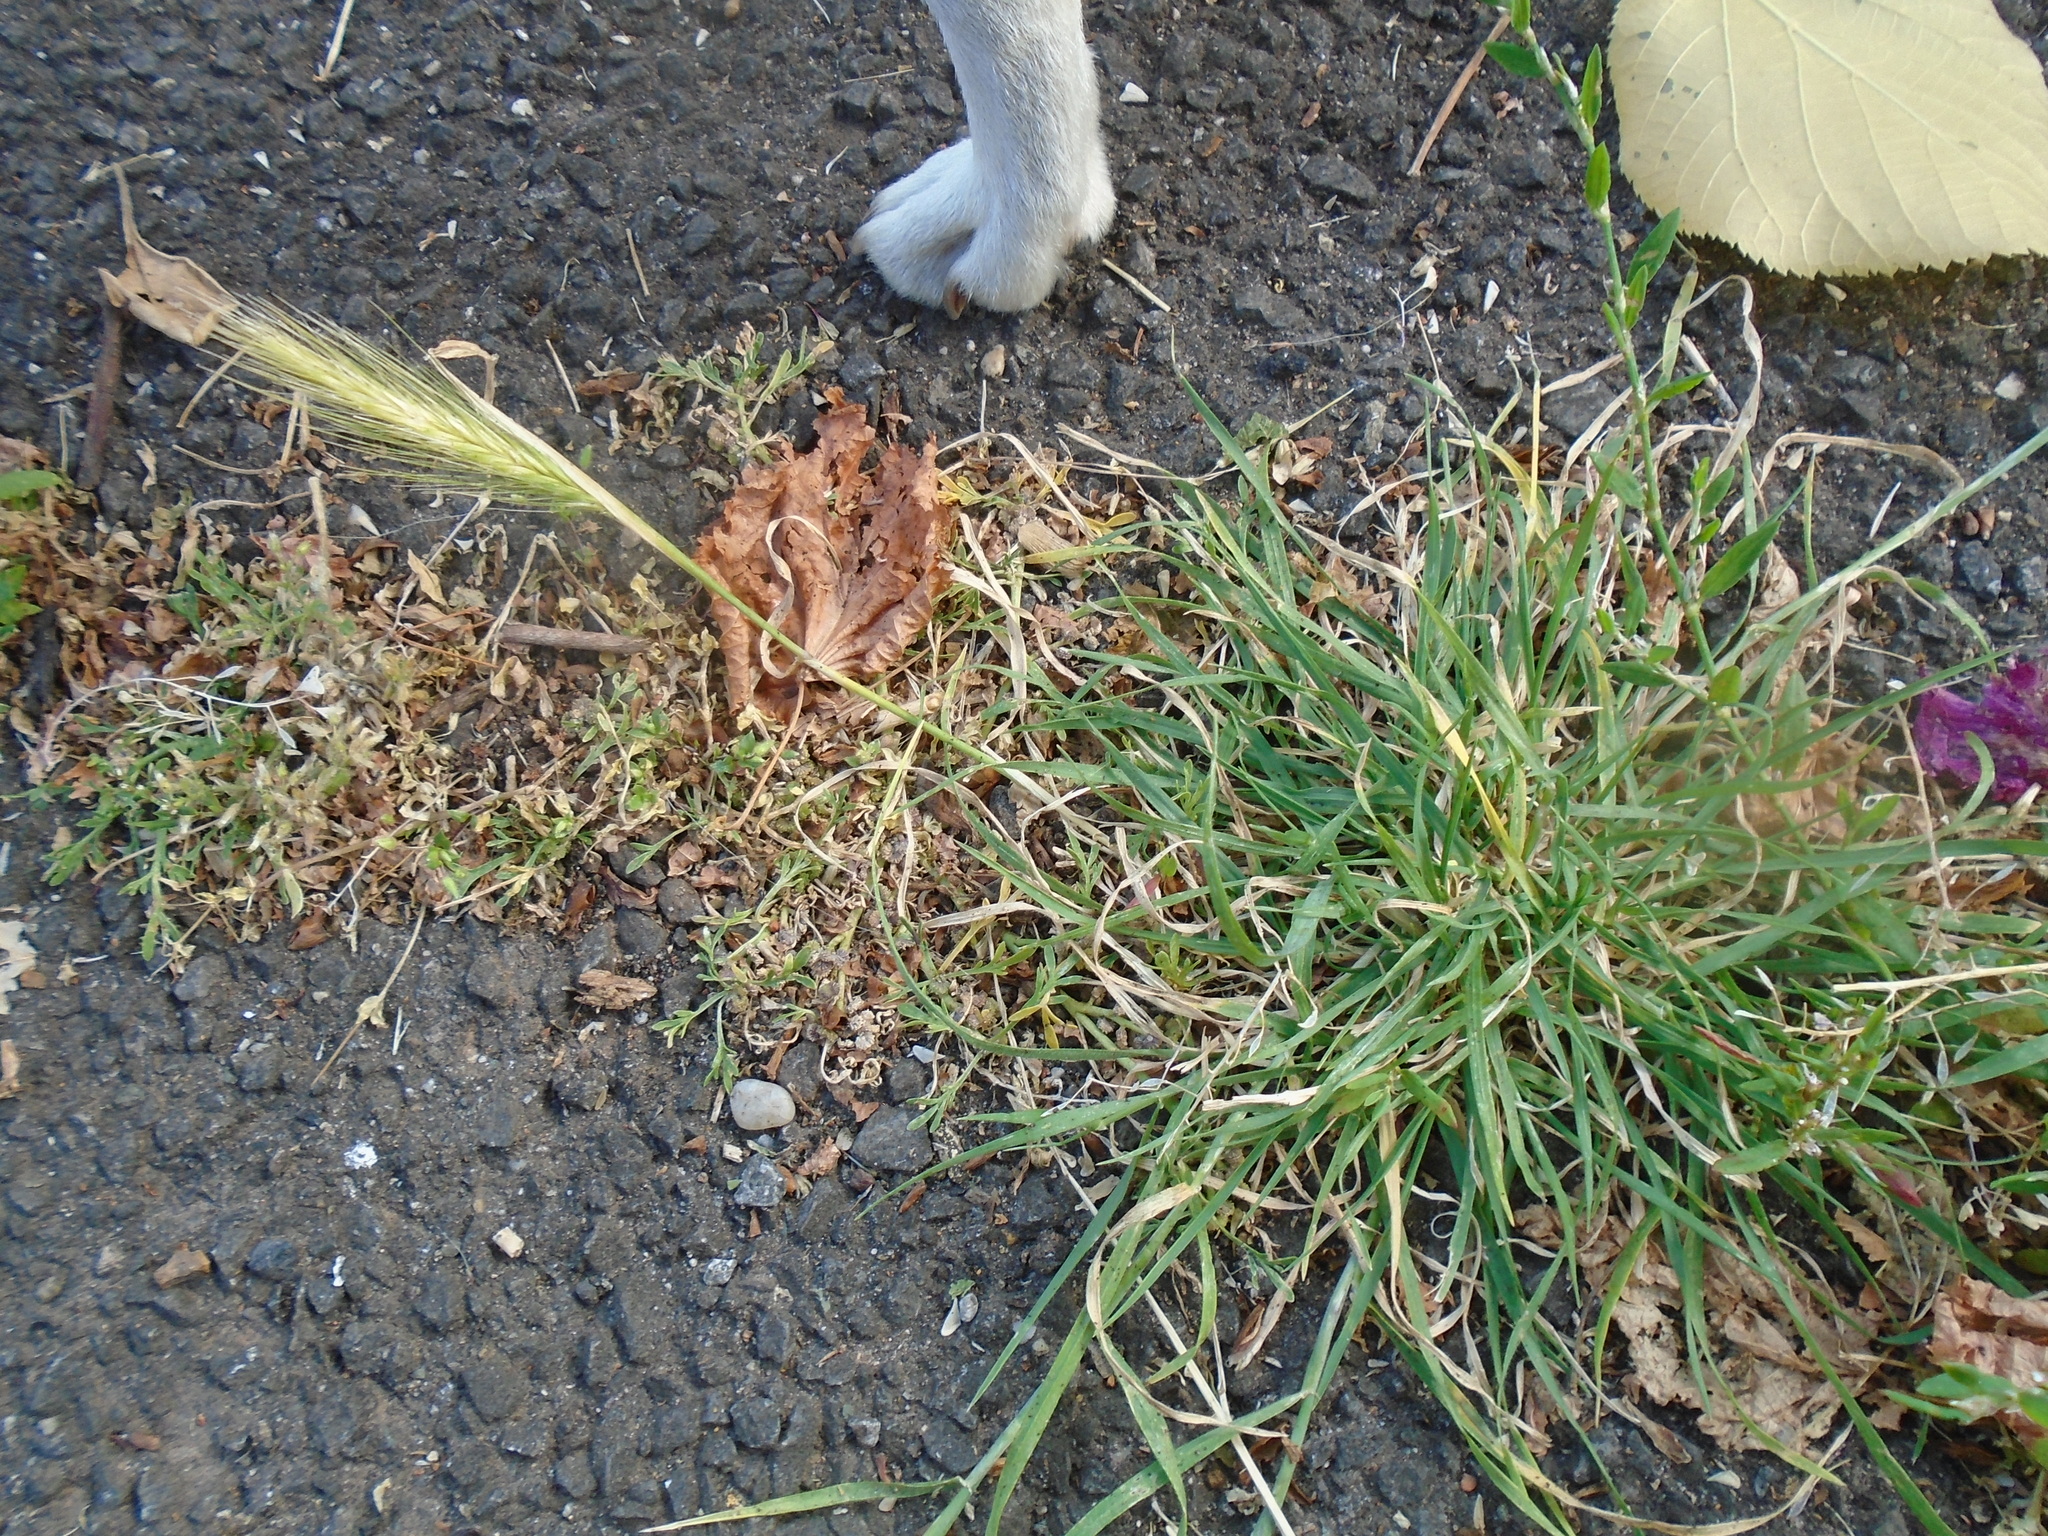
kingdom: Plantae
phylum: Tracheophyta
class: Liliopsida
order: Poales
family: Poaceae
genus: Hordeum
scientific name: Hordeum murinum
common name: Wall barley
